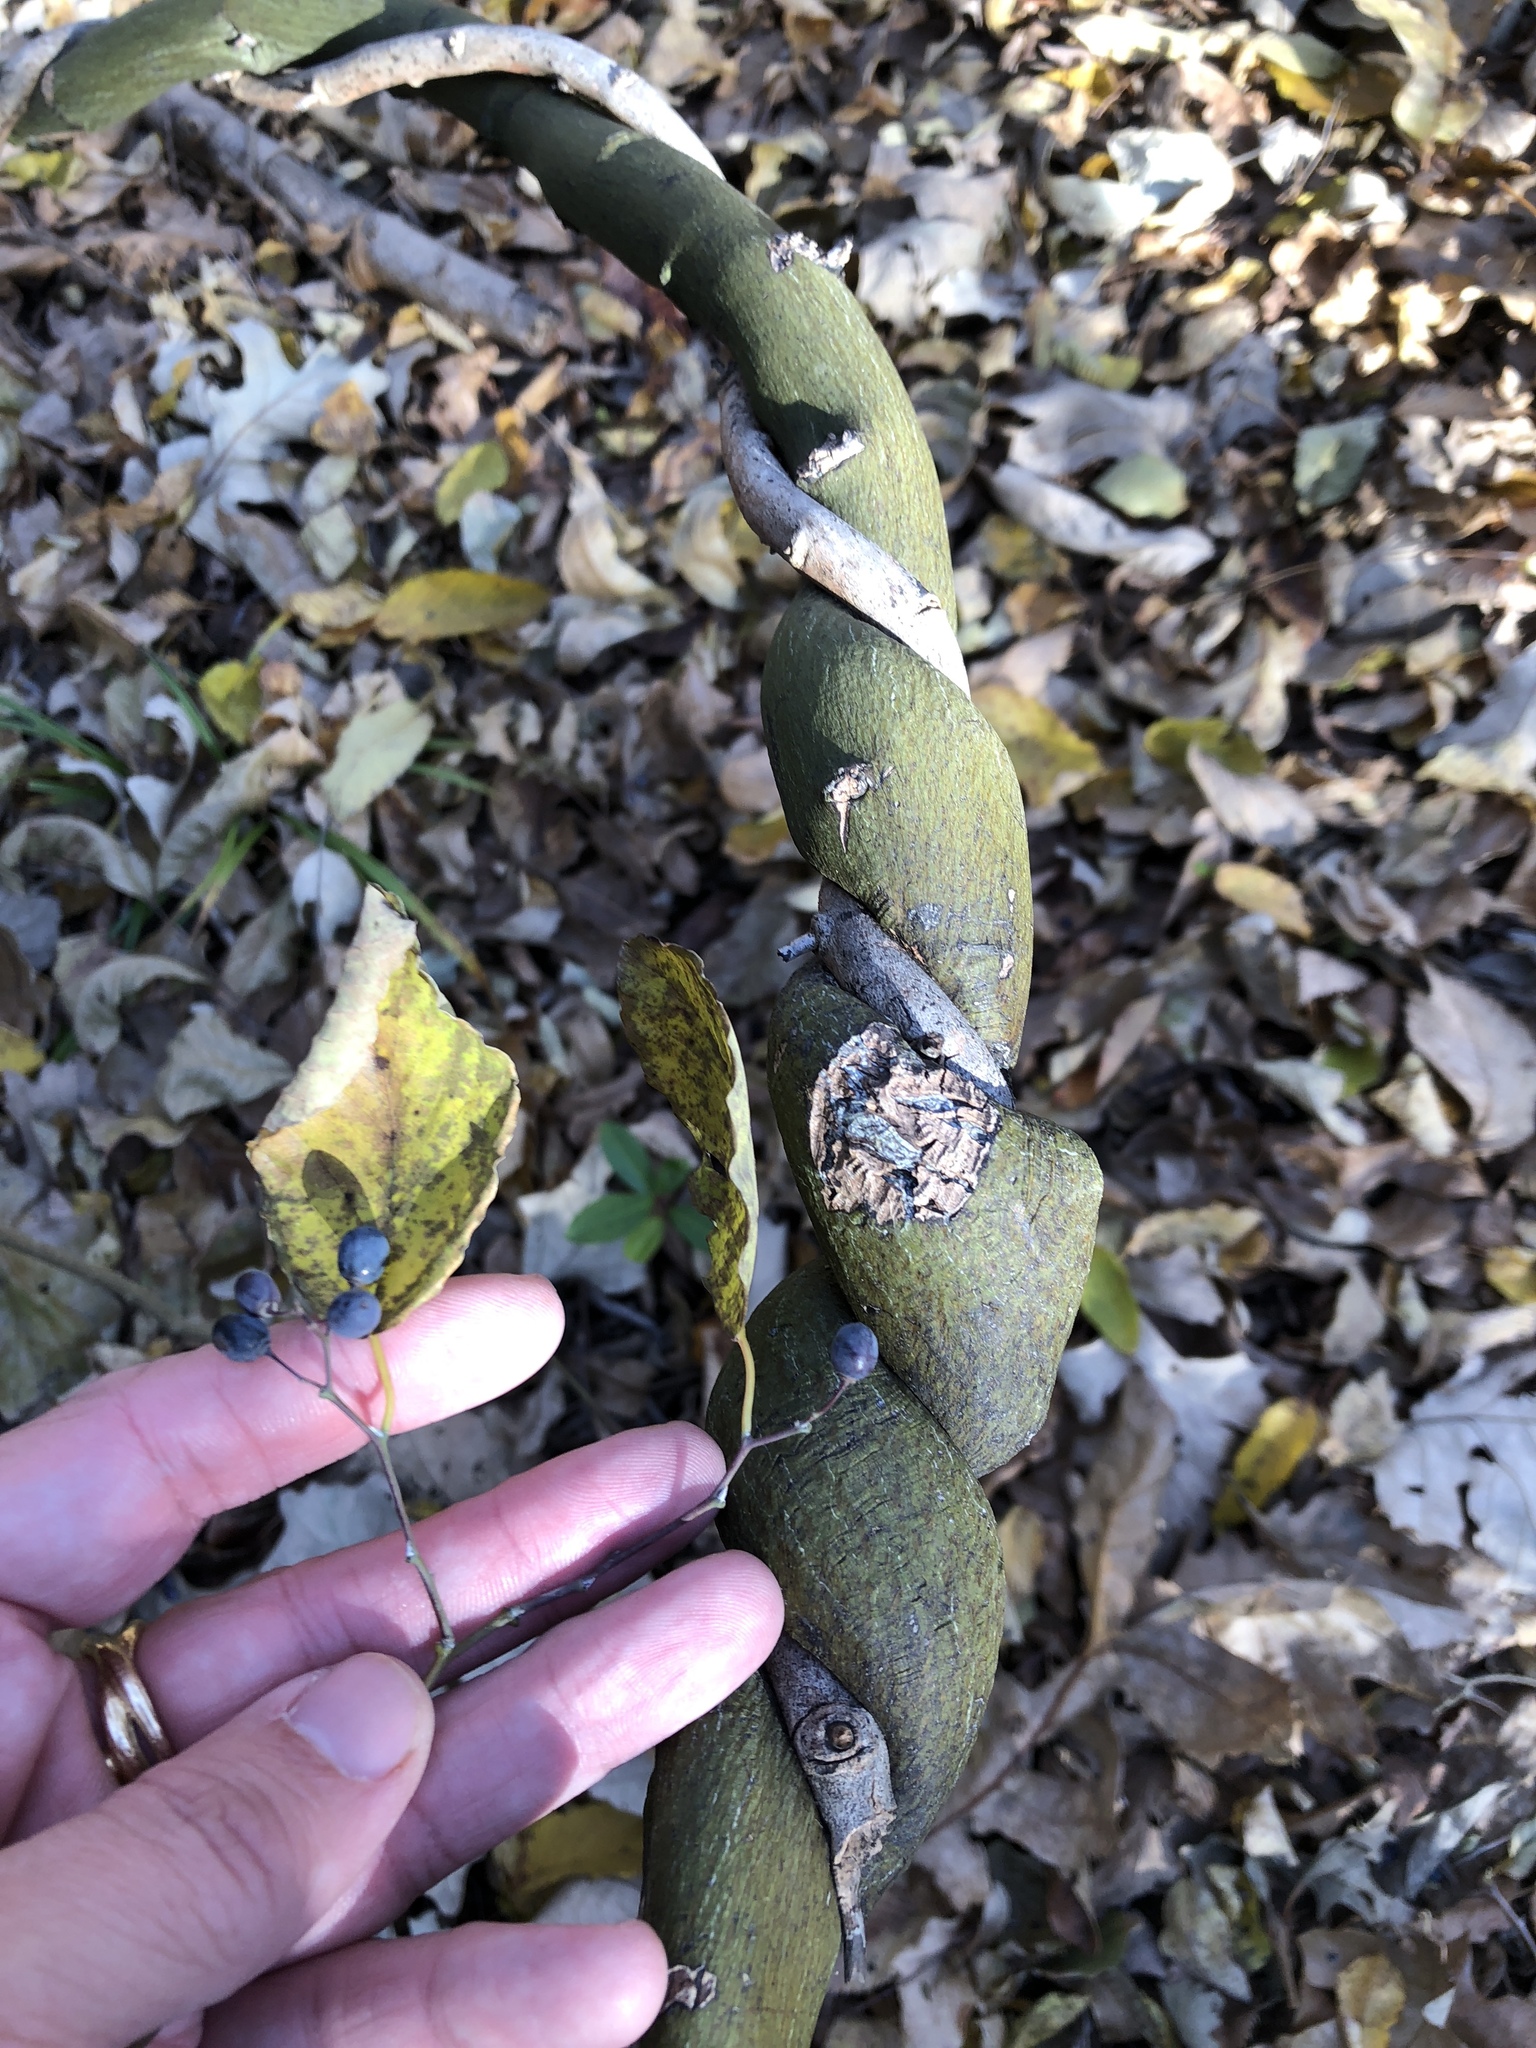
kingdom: Plantae
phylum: Tracheophyta
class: Magnoliopsida
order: Rosales
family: Rhamnaceae
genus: Berchemia
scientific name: Berchemia scandens
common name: Supplejack
